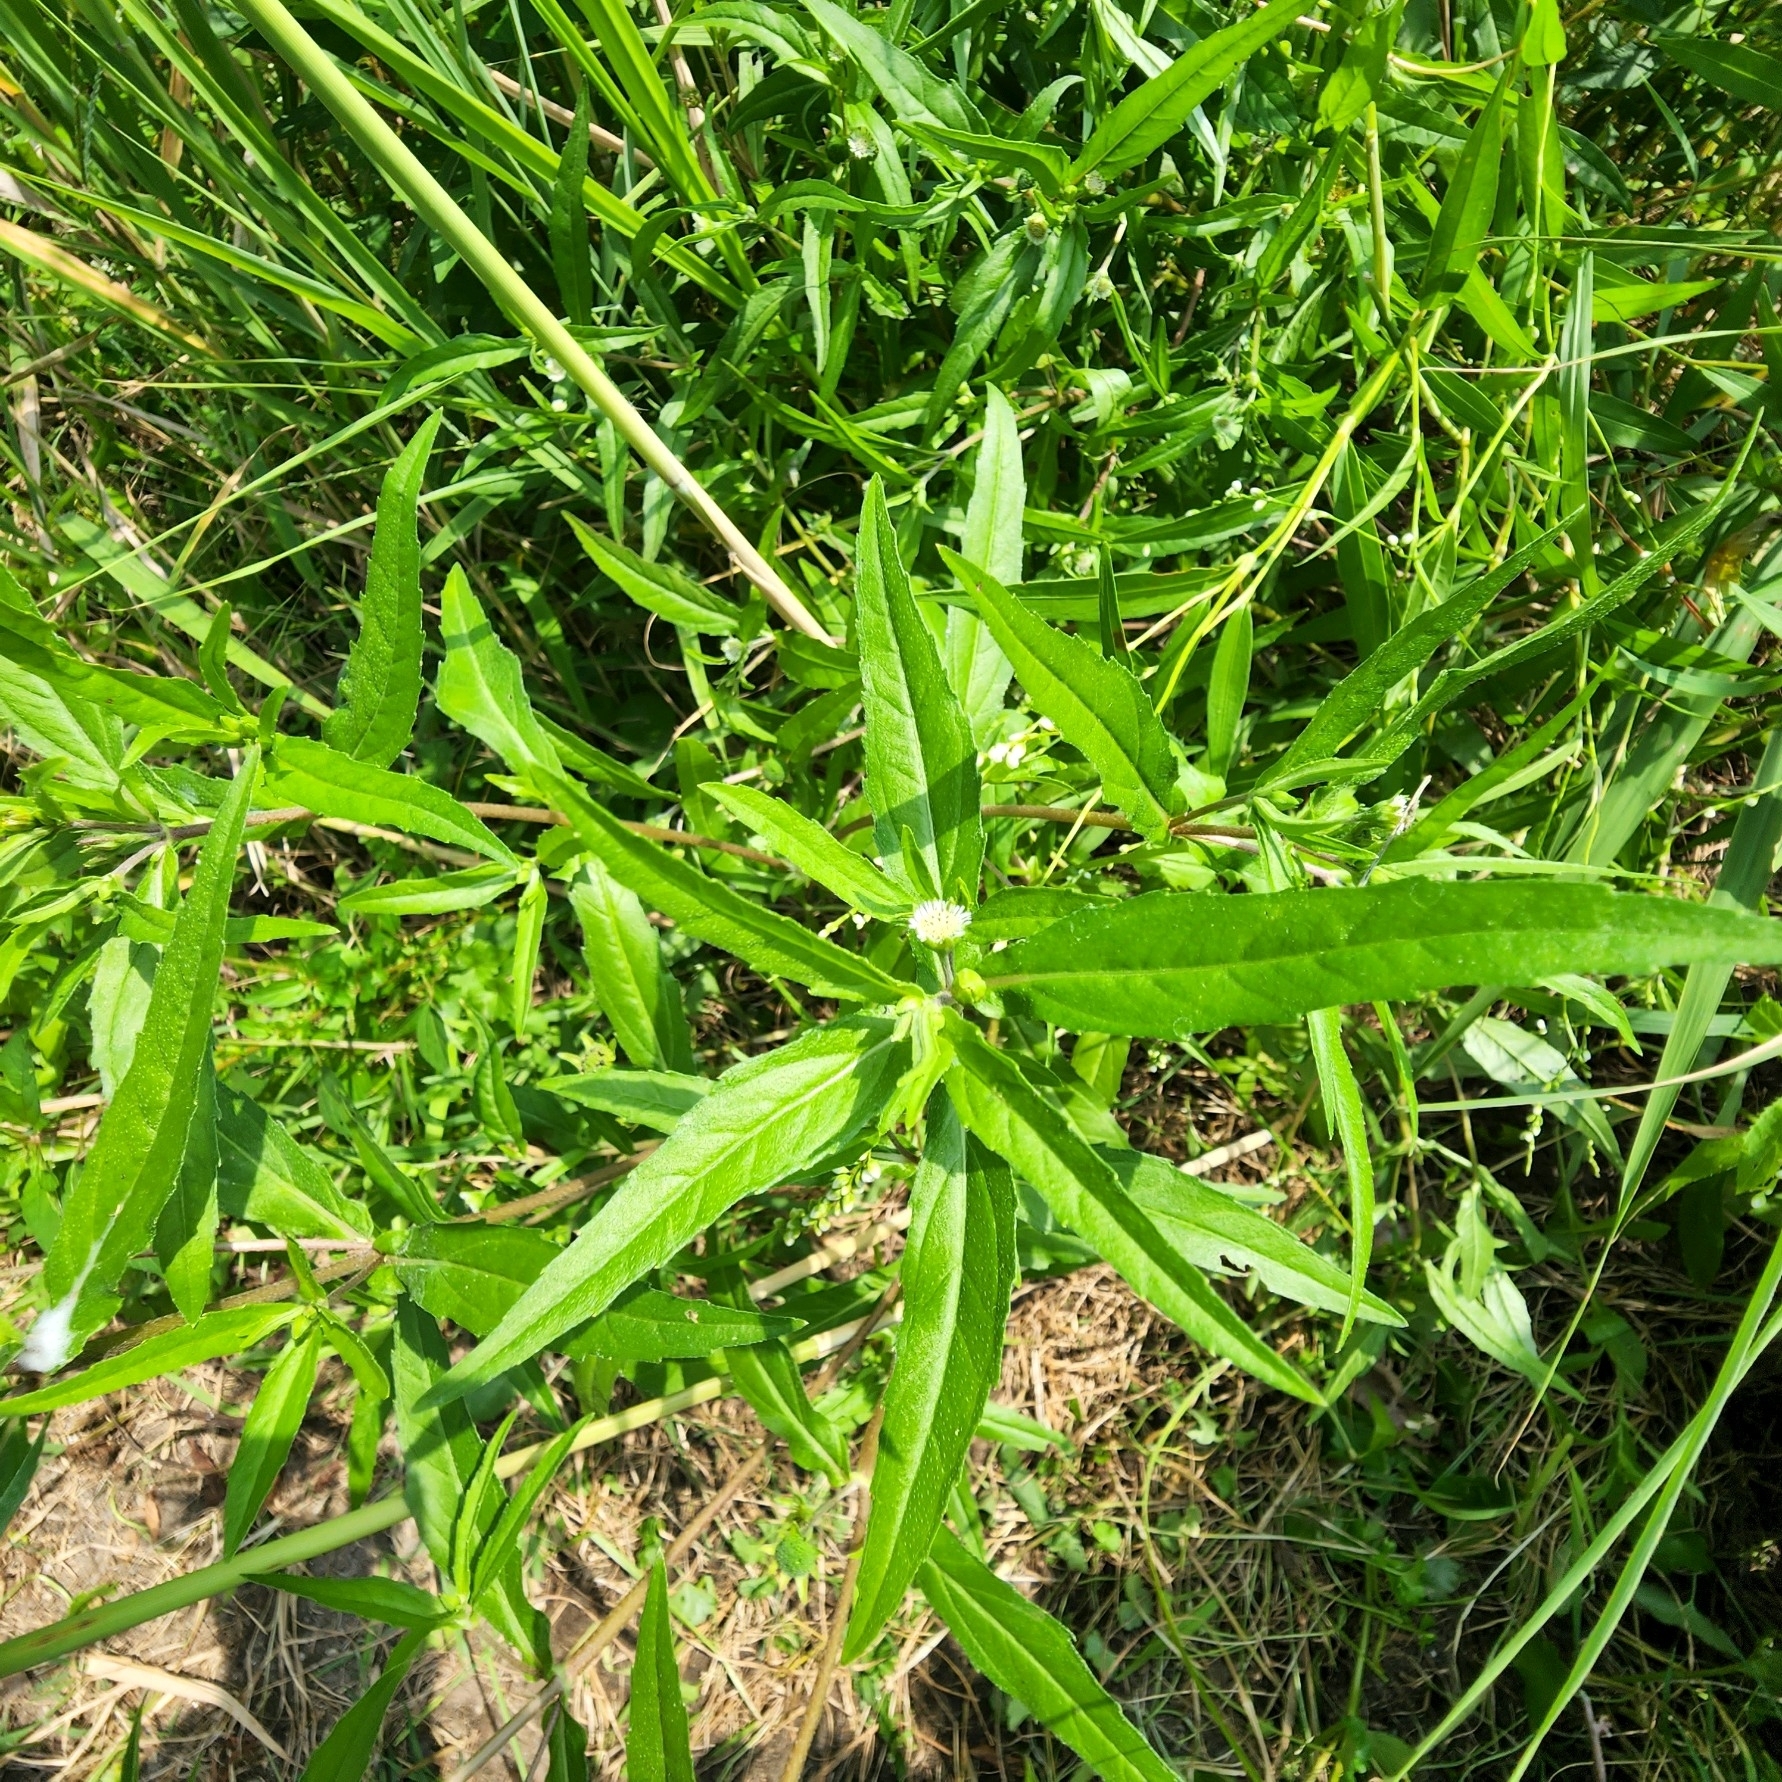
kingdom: Plantae
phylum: Tracheophyta
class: Magnoliopsida
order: Asterales
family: Asteraceae
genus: Eclipta
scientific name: Eclipta prostrata
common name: False daisy
